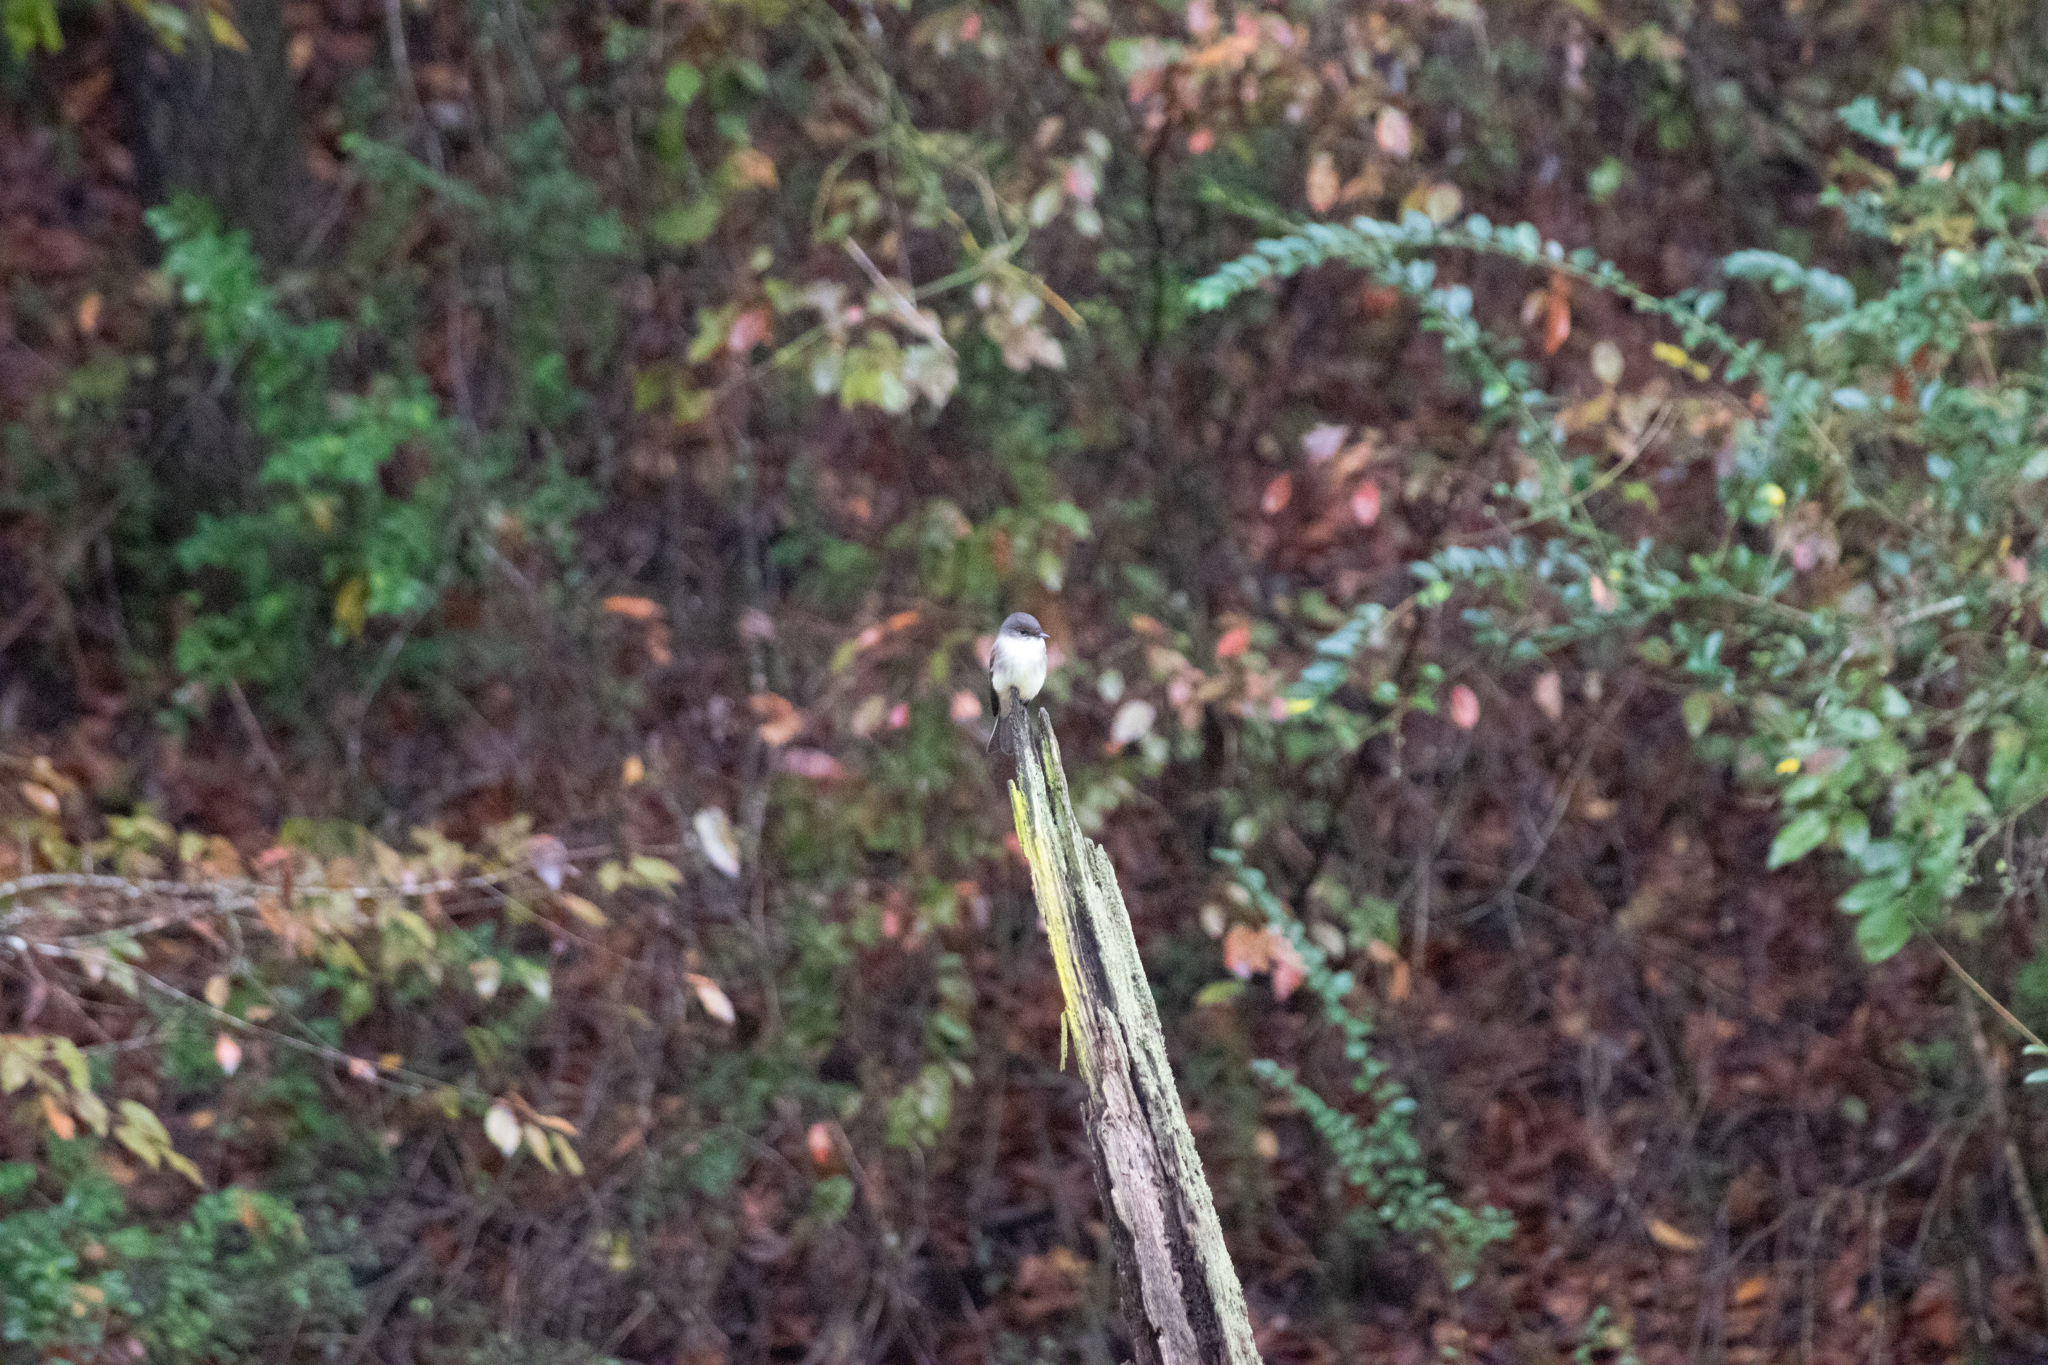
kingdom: Animalia
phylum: Chordata
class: Aves
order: Passeriformes
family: Tyrannidae
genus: Sayornis
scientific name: Sayornis phoebe
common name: Eastern phoebe
